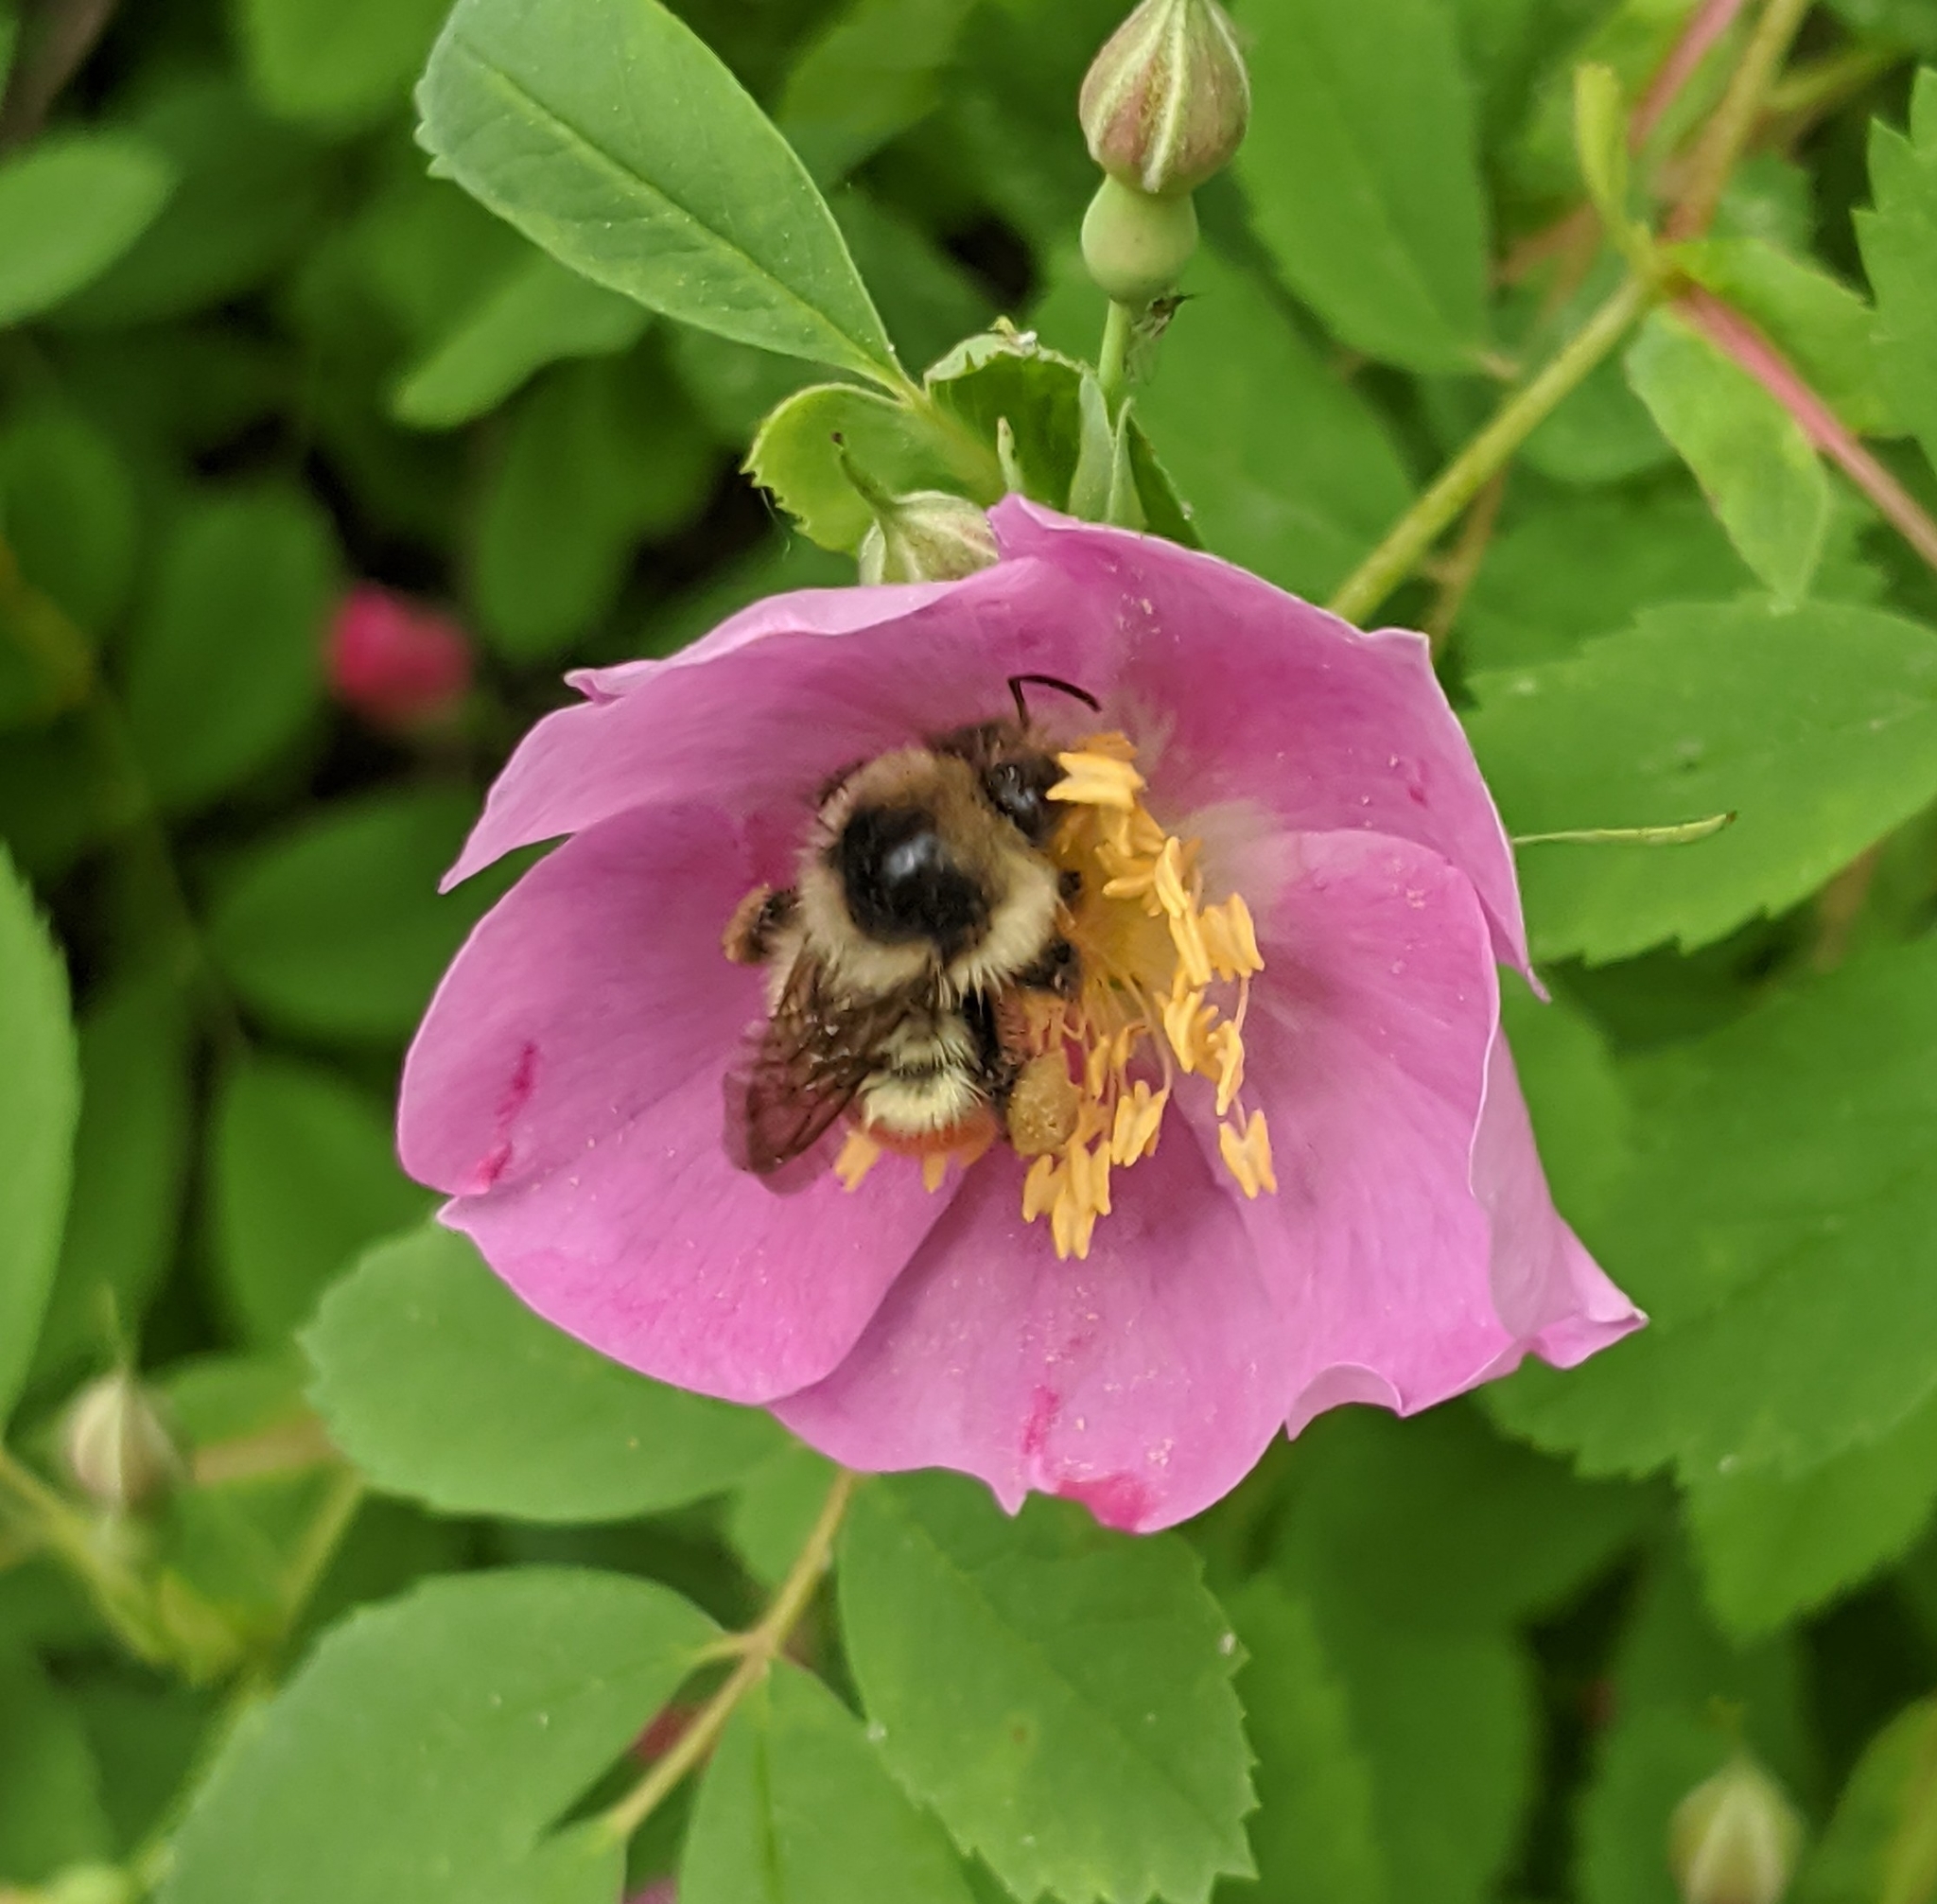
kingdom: Animalia
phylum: Arthropoda
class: Insecta
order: Hymenoptera
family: Apidae
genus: Bombus
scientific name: Bombus flavifrons
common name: Yellow head bumble bee
